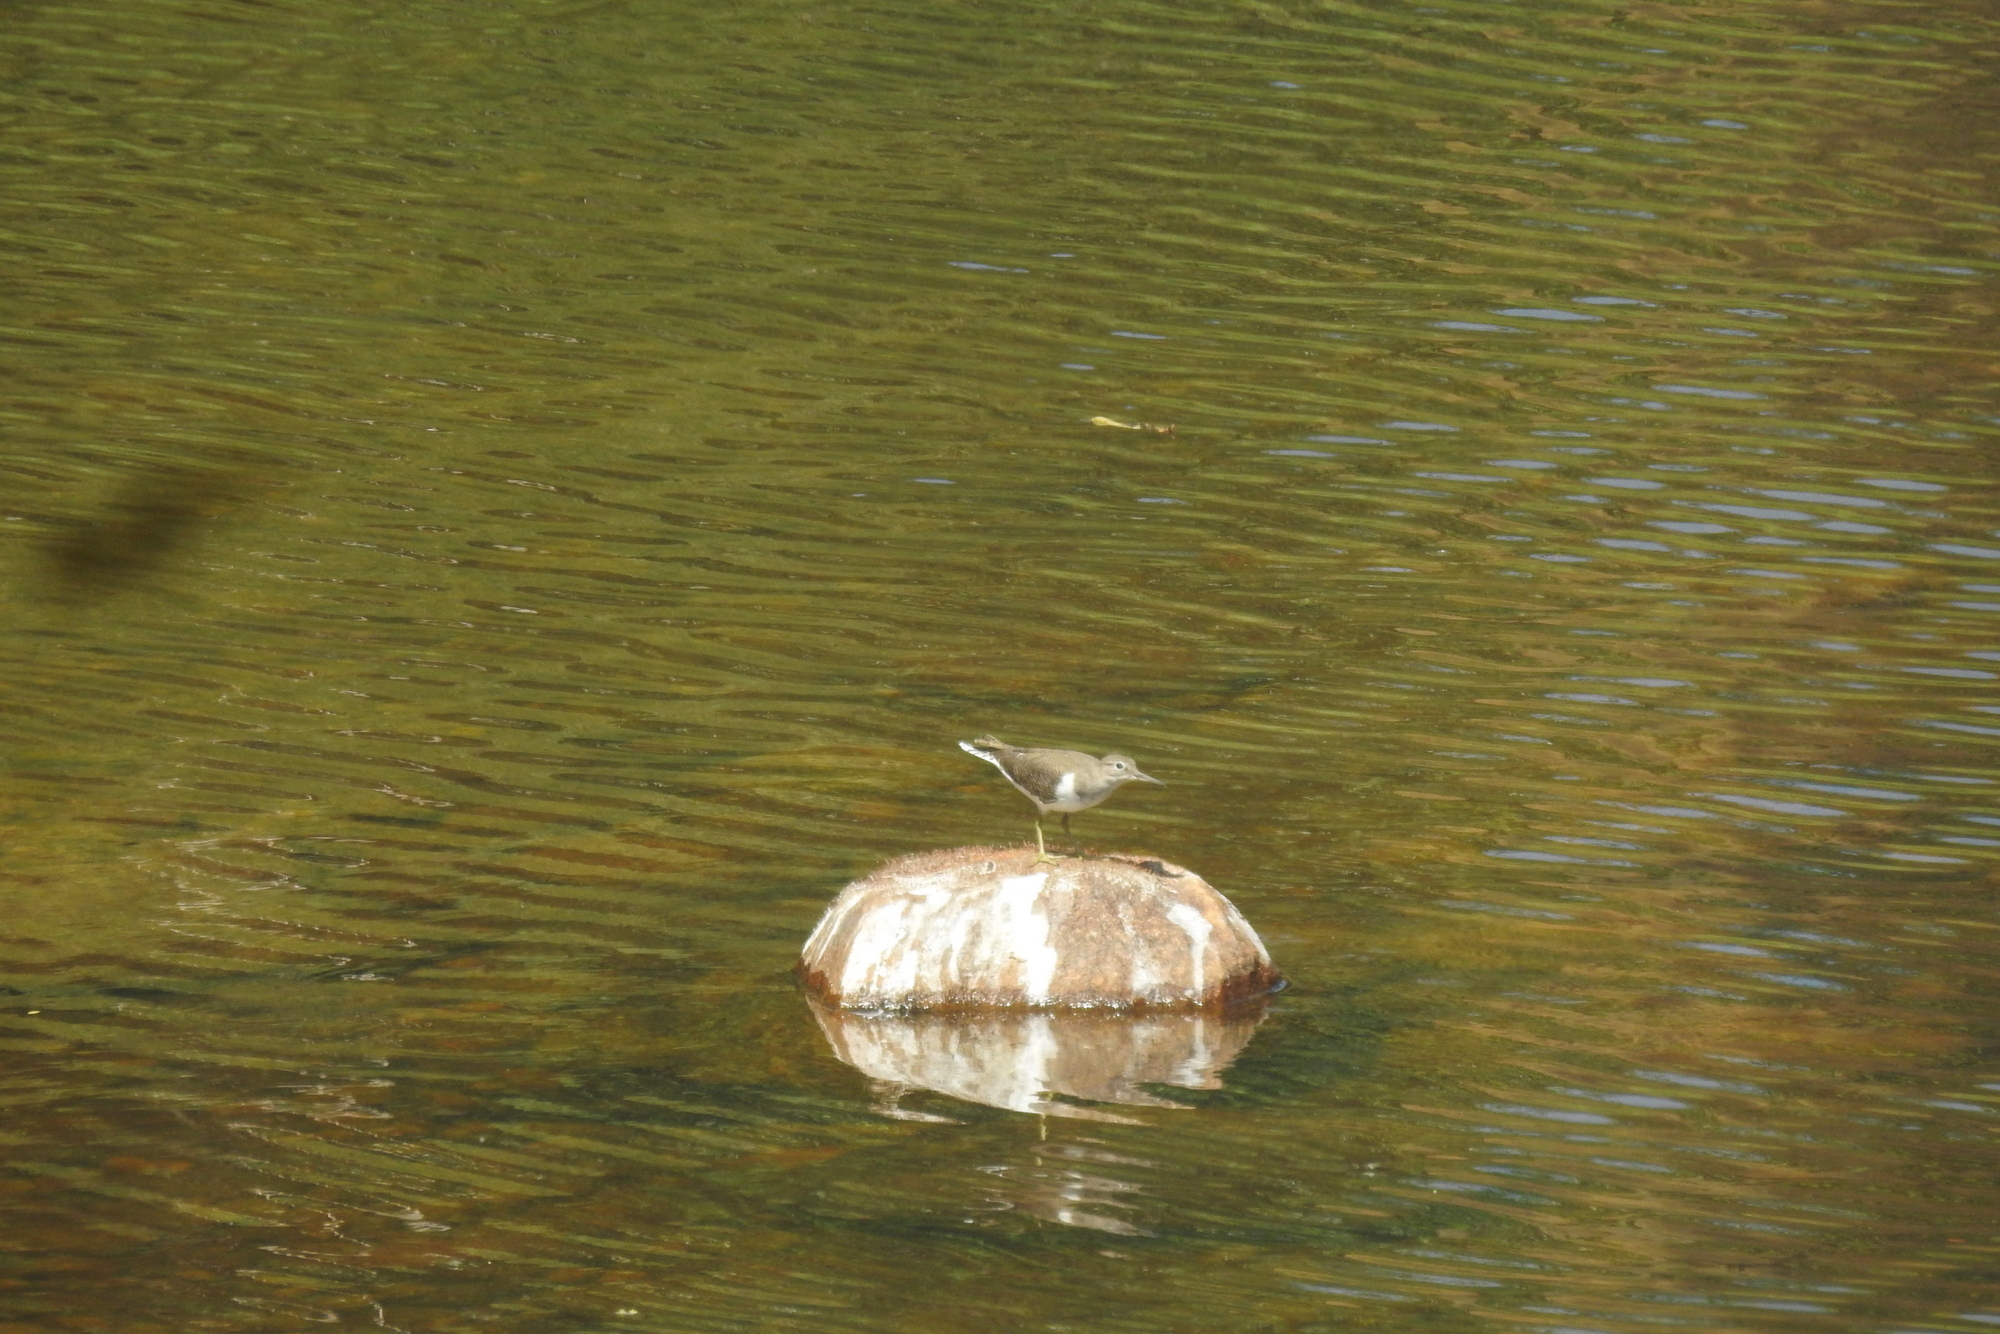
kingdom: Animalia
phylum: Chordata
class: Aves
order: Charadriiformes
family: Scolopacidae
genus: Actitis
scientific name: Actitis hypoleucos
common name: Common sandpiper
